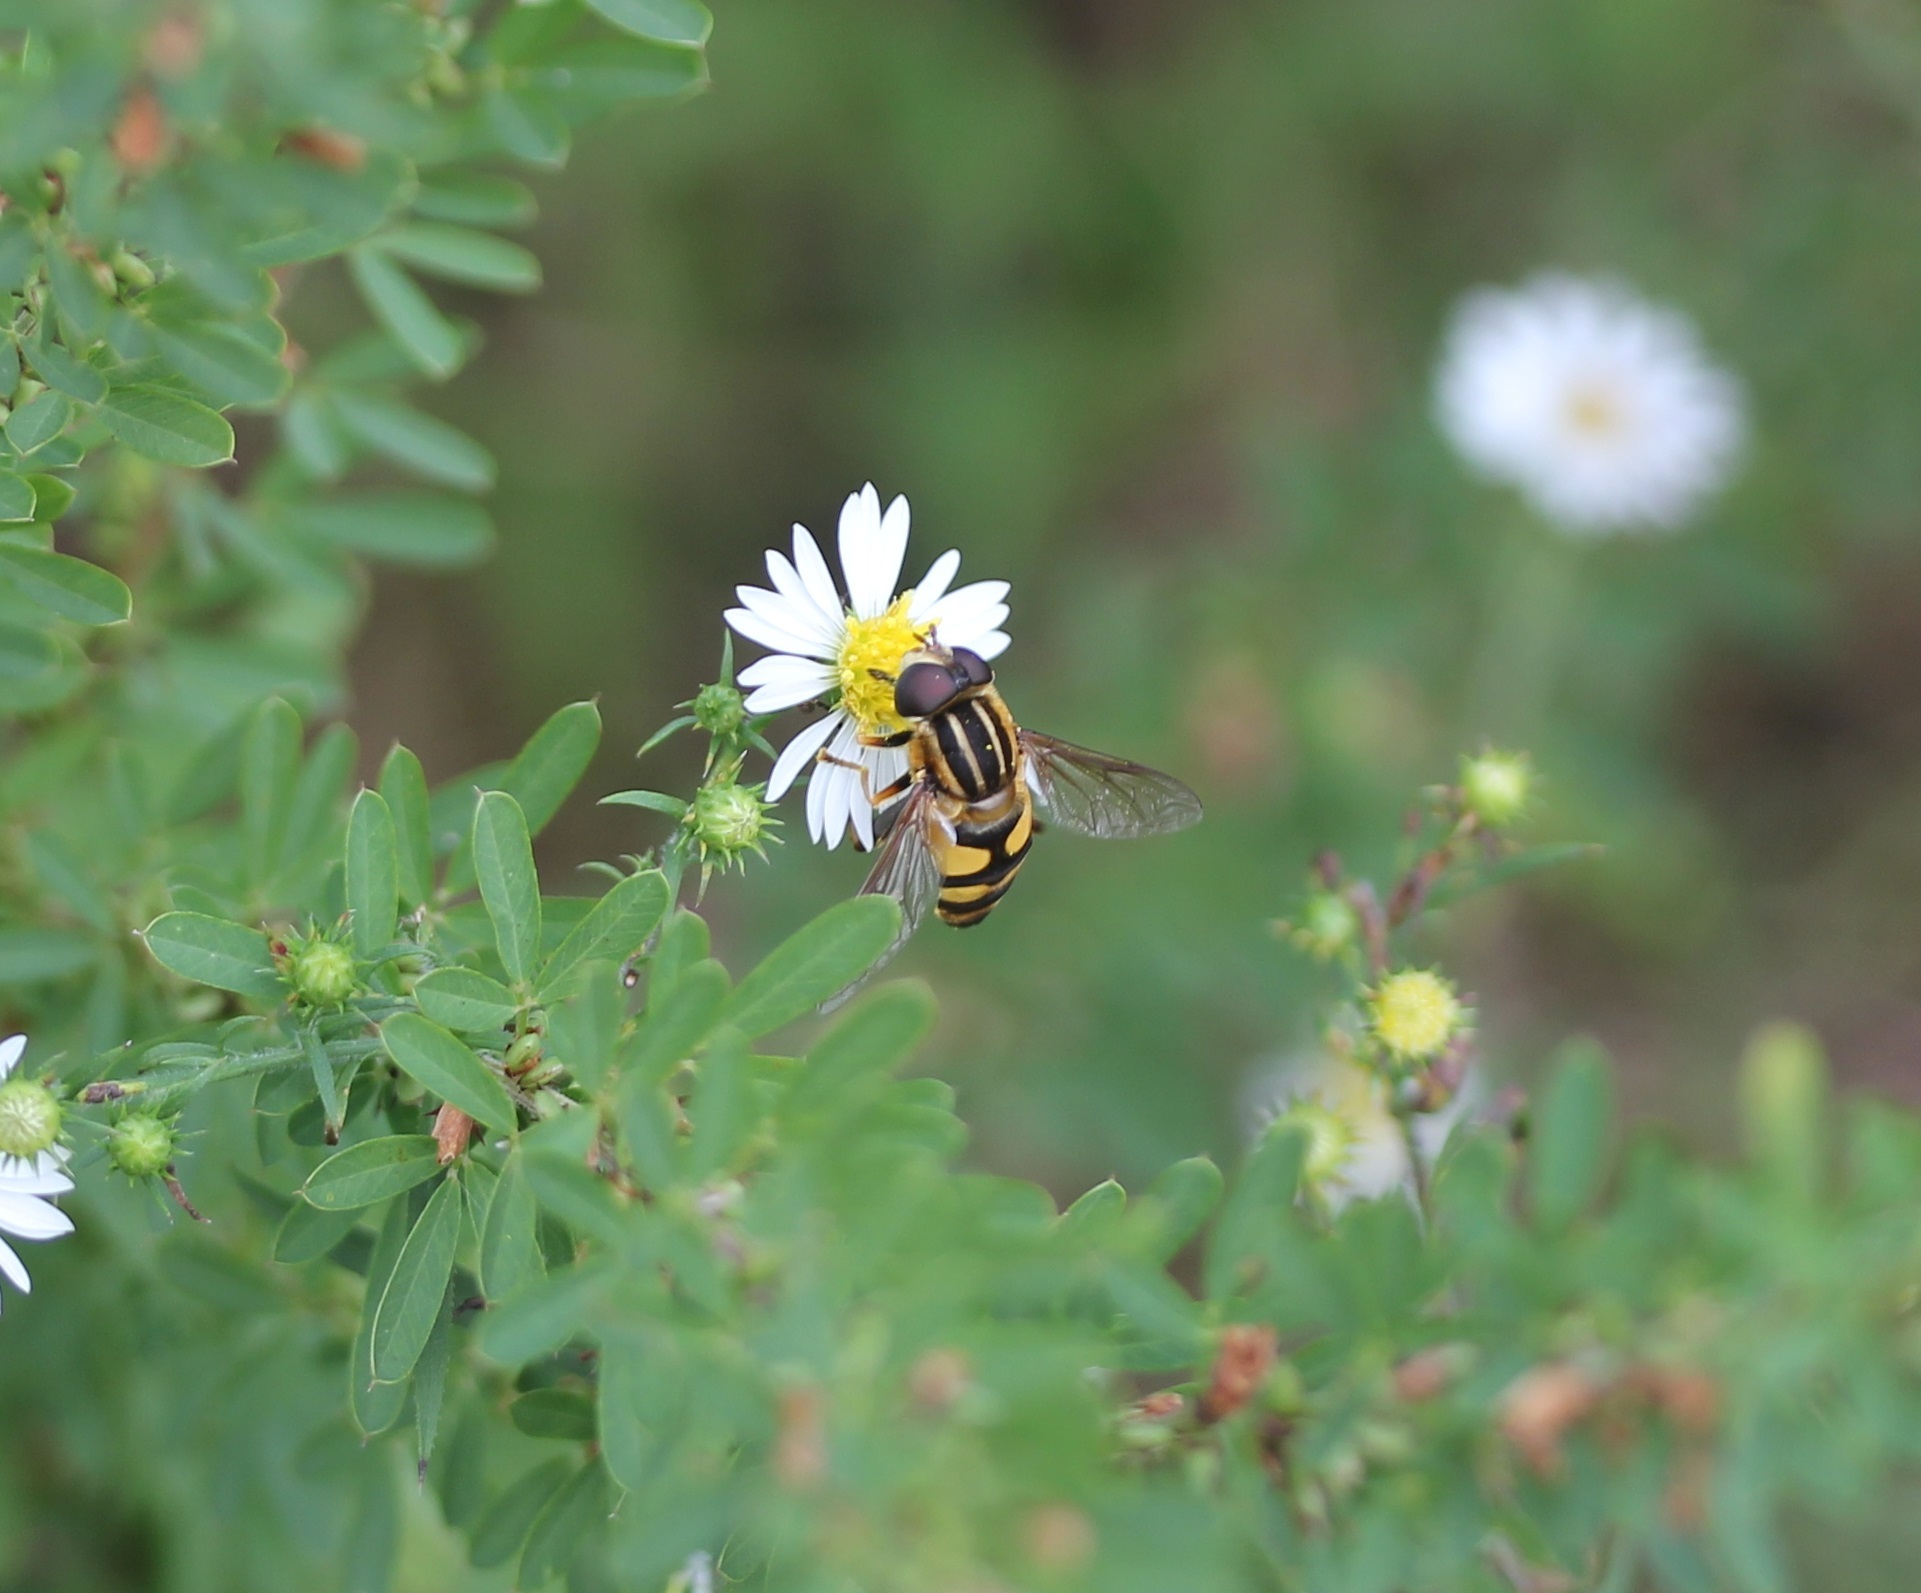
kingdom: Animalia
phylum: Arthropoda
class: Insecta
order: Diptera
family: Syrphidae
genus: Helophilus
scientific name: Helophilus fasciatus
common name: Narrow-headed marsh fly
